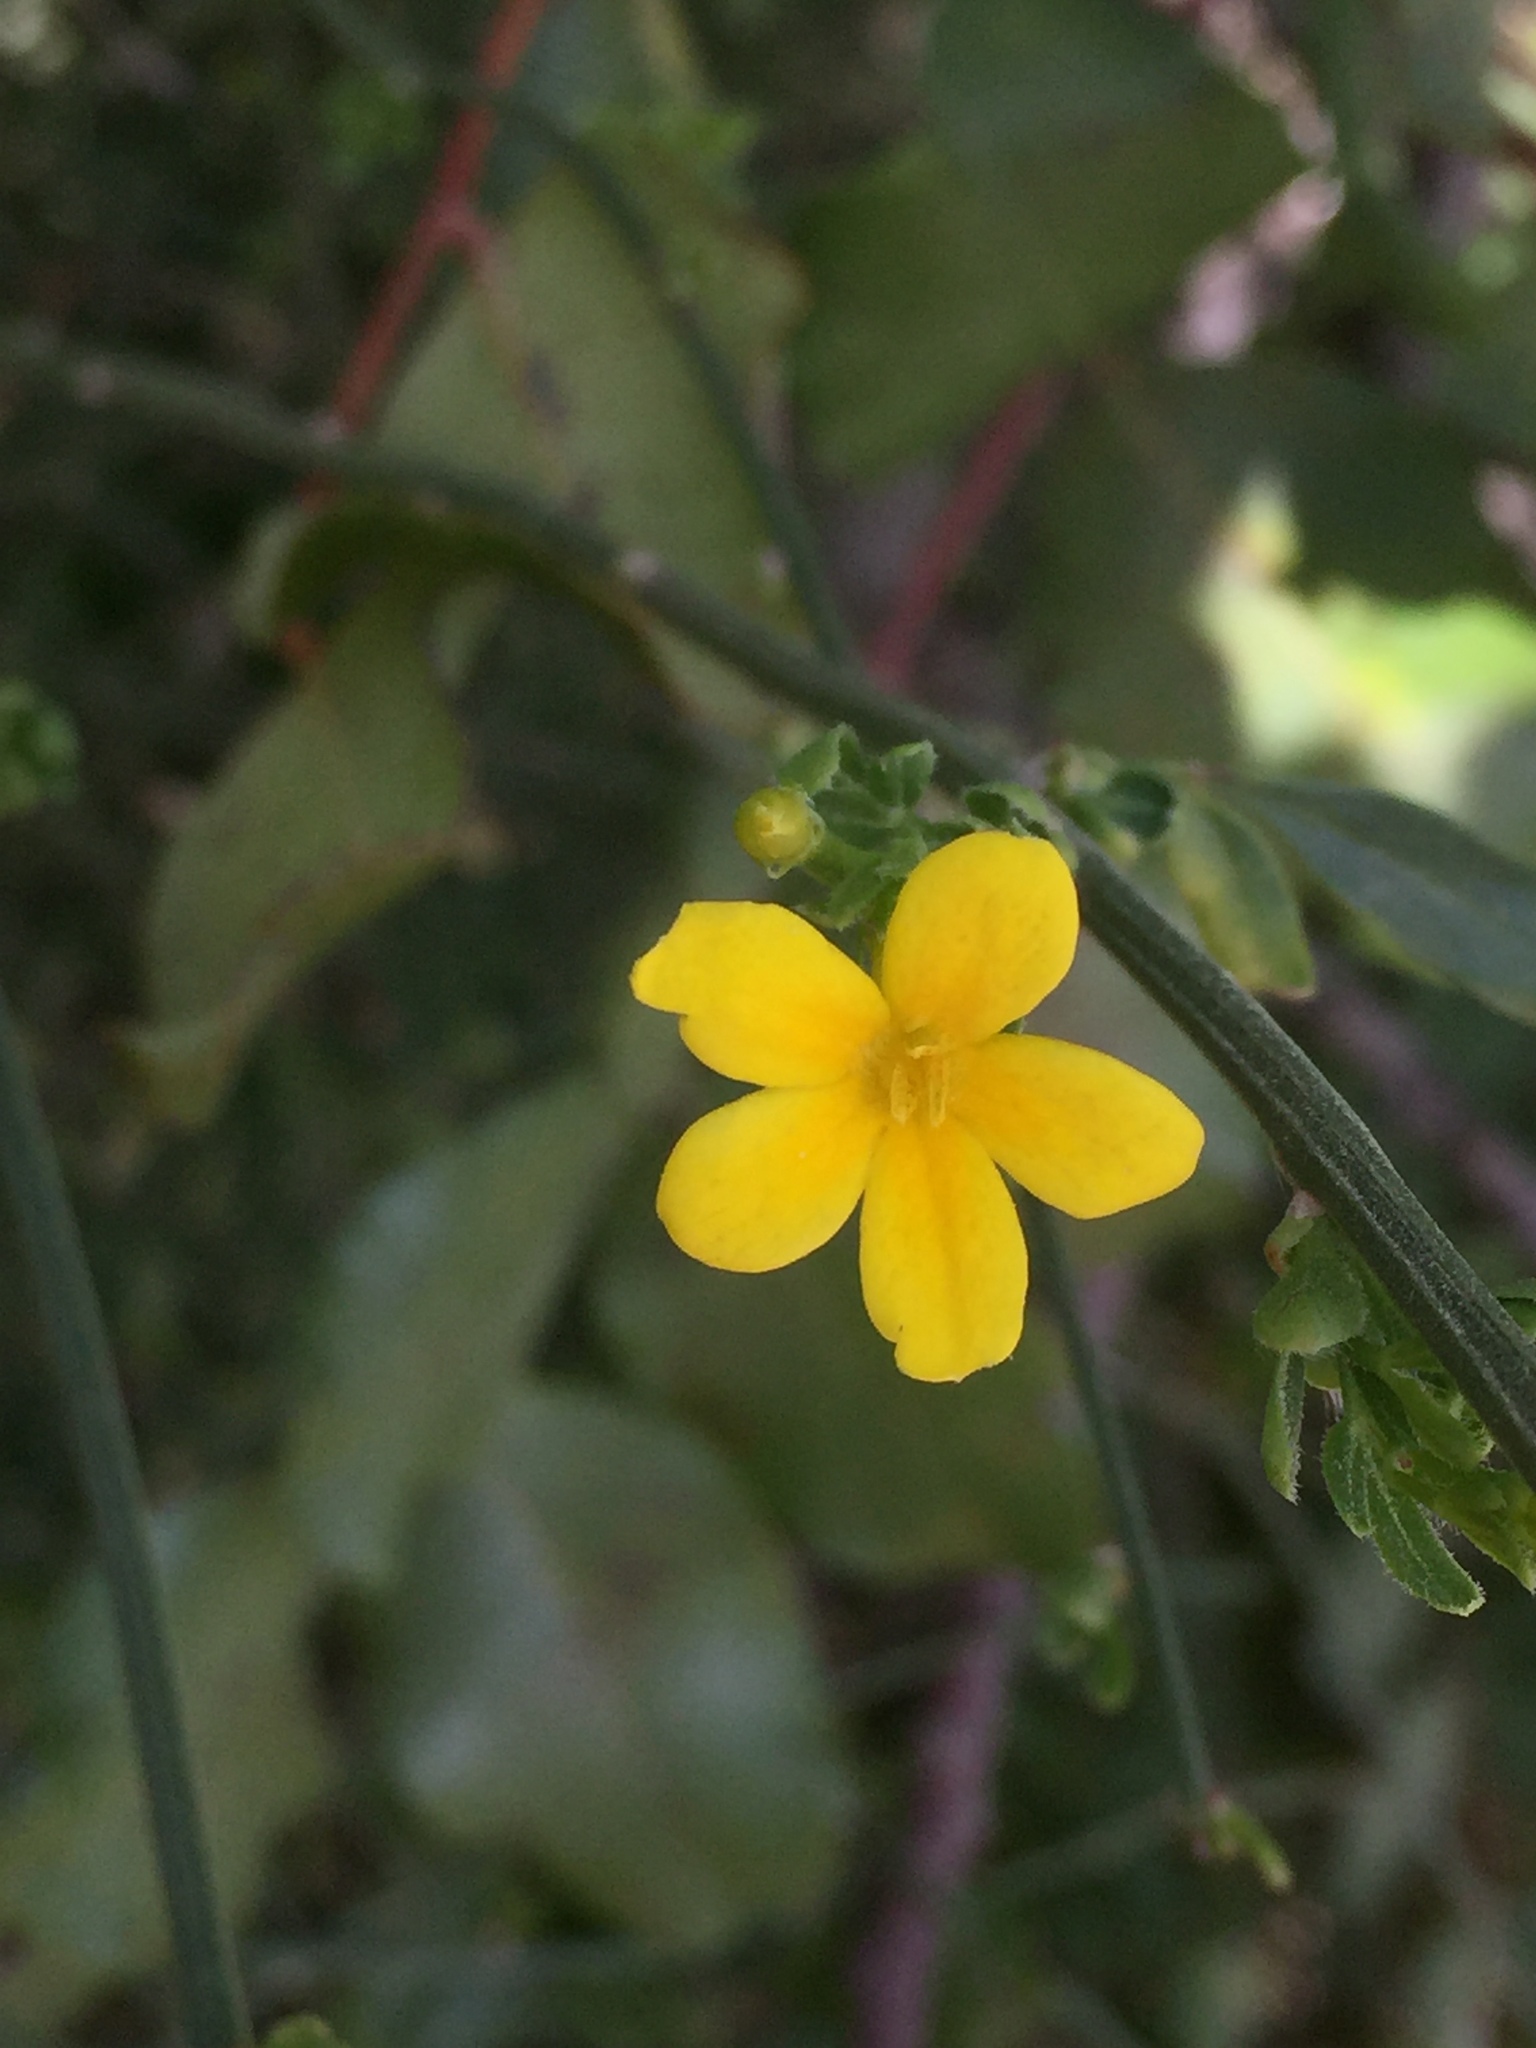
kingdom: Plantae
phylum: Tracheophyta
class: Magnoliopsida
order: Lamiales
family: Oleaceae
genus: Chrysojasminum
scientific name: Chrysojasminum fruticans
